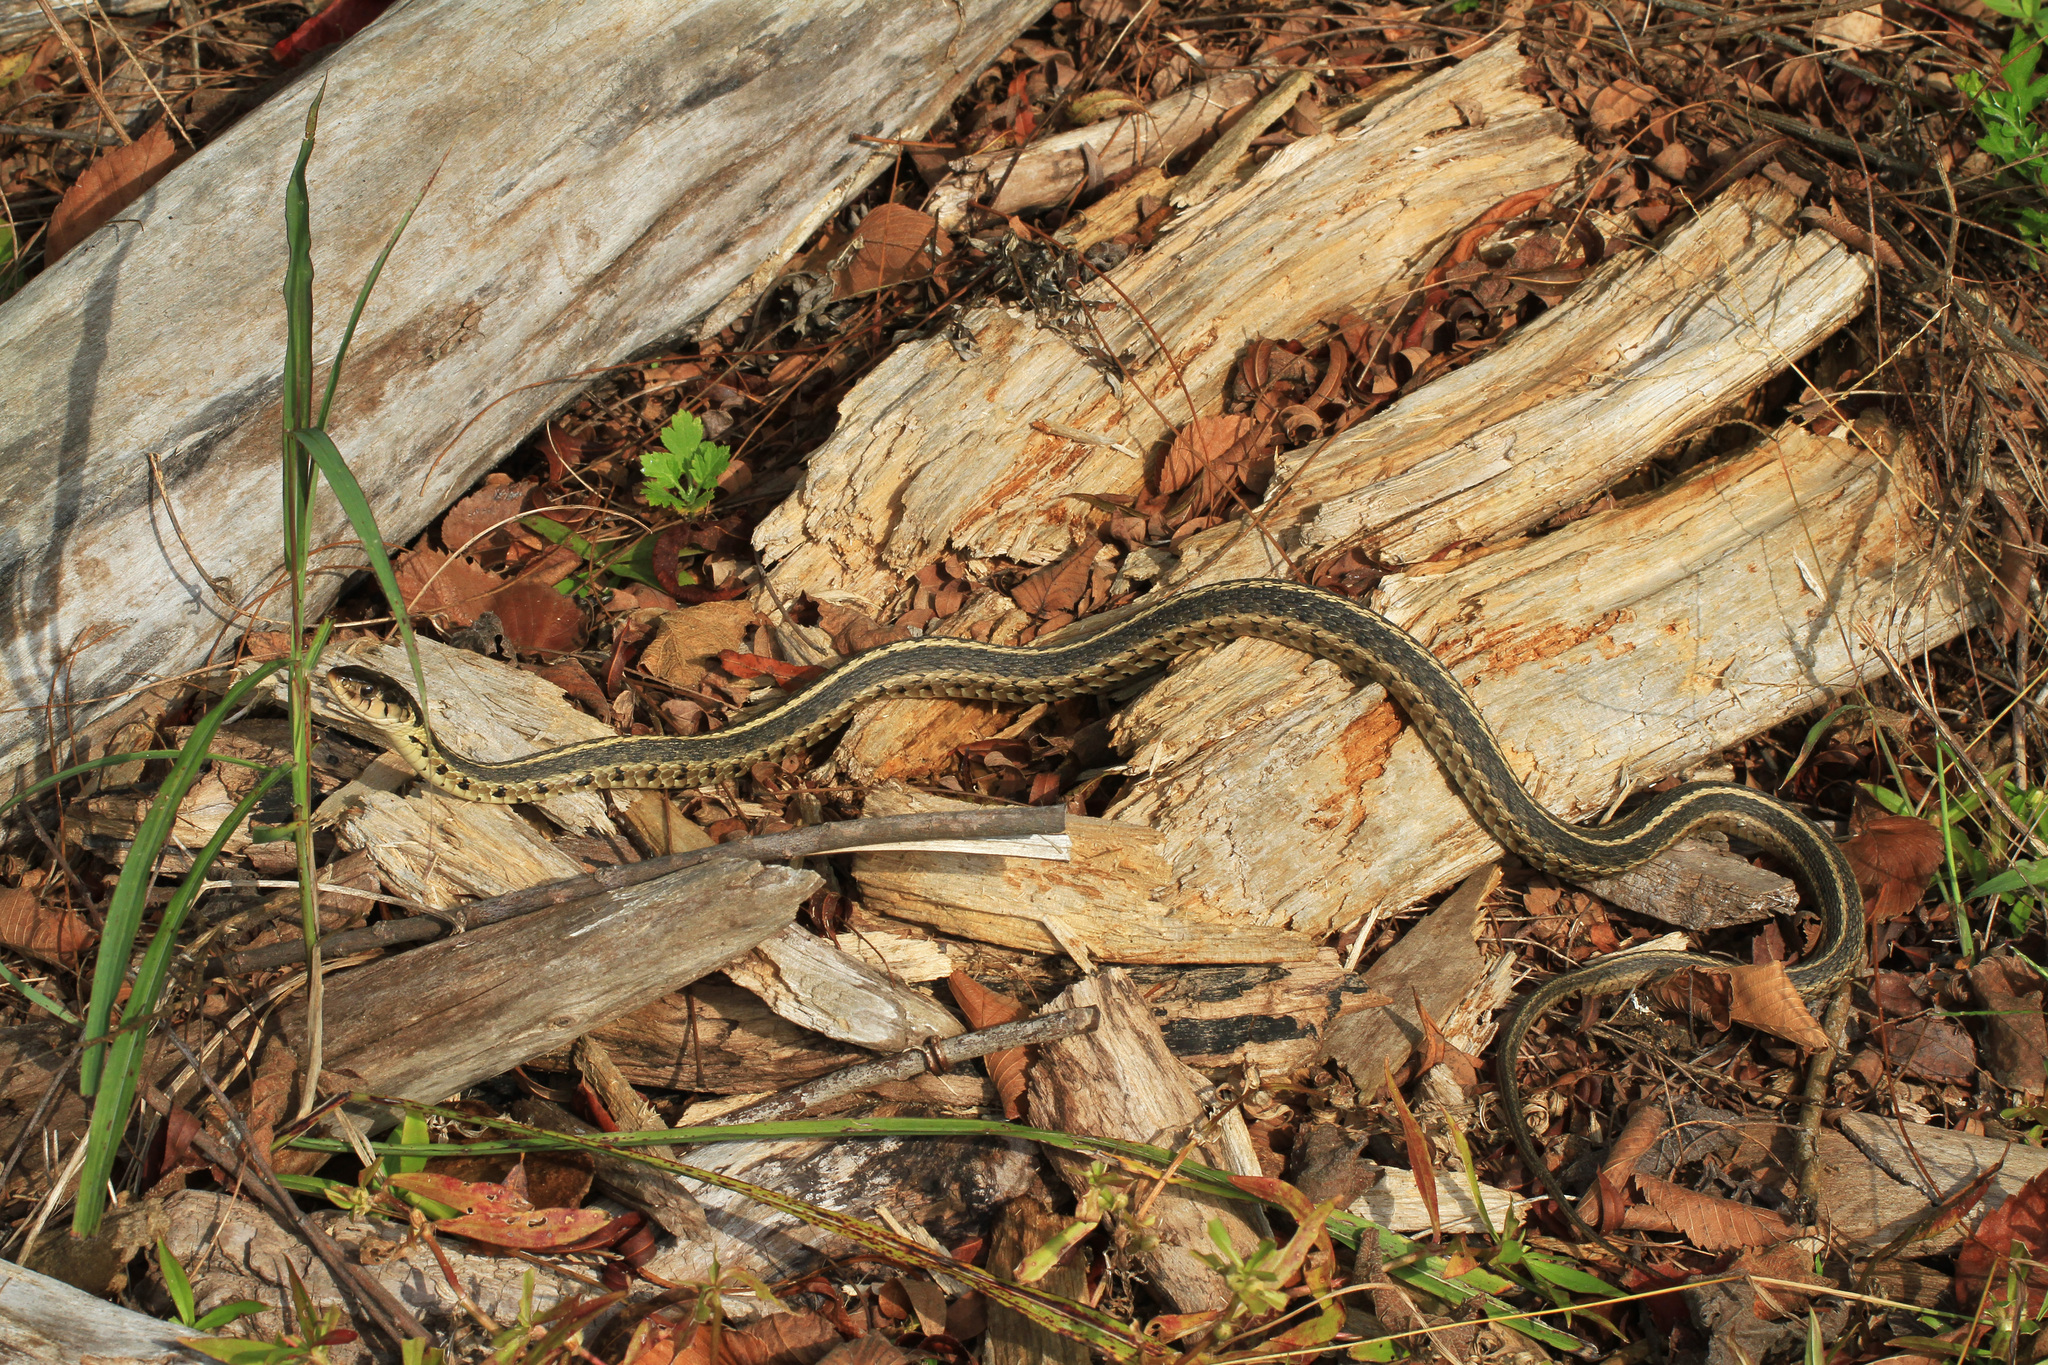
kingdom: Animalia
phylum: Chordata
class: Squamata
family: Colubridae
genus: Thamnophis
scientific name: Thamnophis sirtalis
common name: Common garter snake
